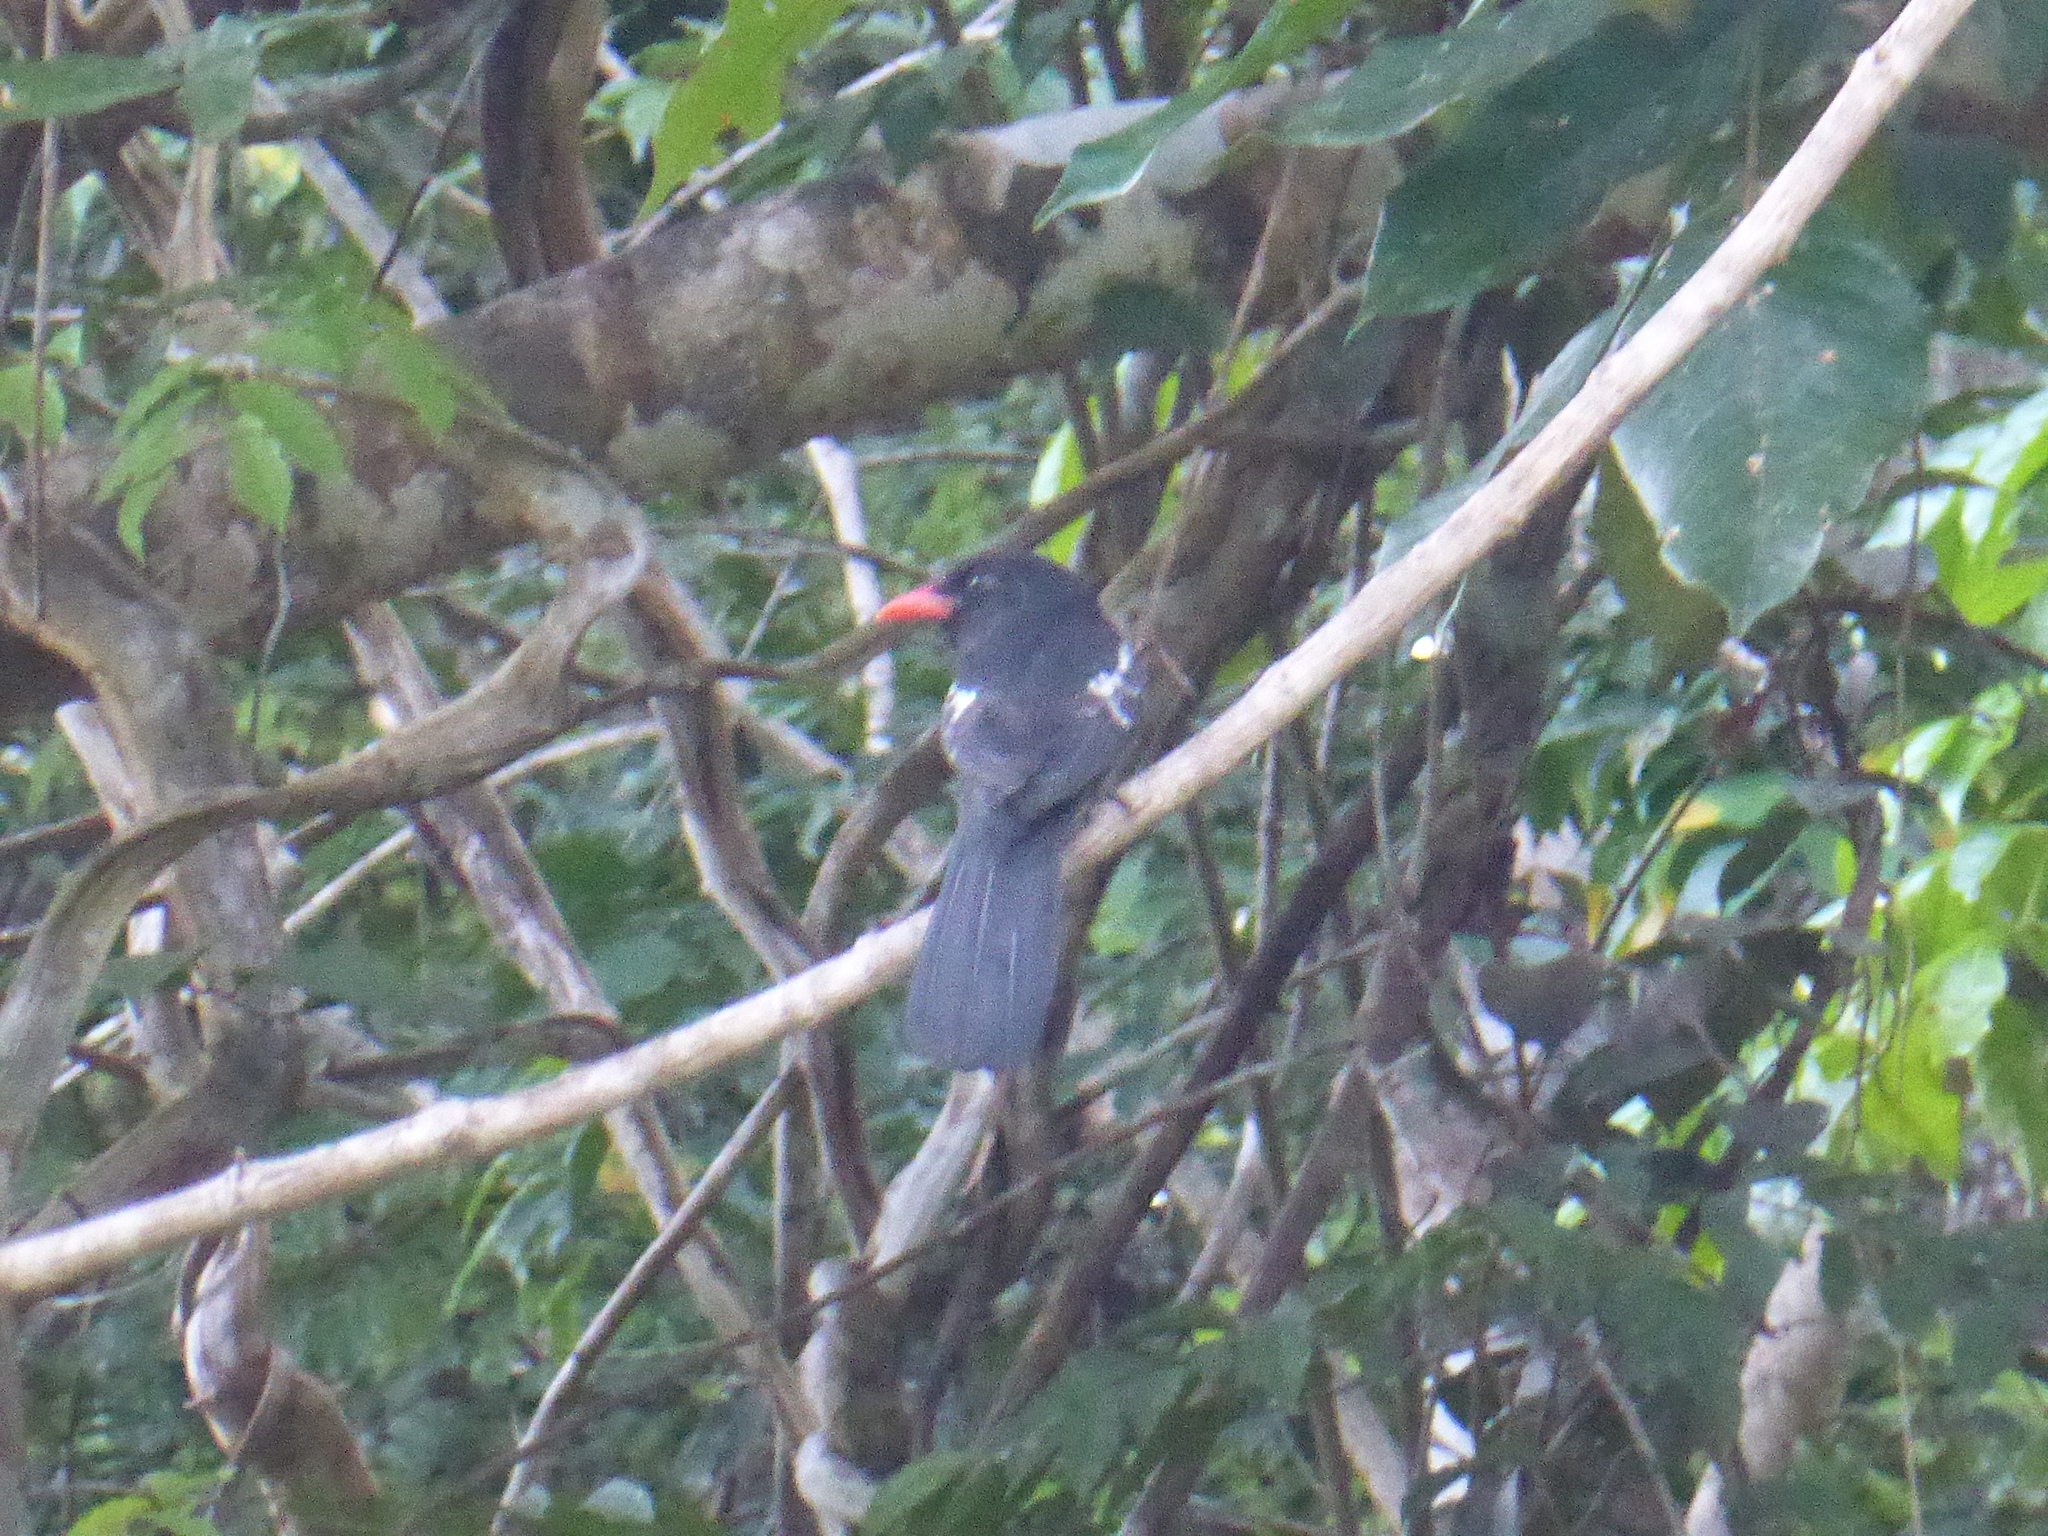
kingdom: Animalia
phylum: Chordata
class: Aves
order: Piciformes
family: Bucconidae
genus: Monasa
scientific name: Monasa atra
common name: Black nunbird
